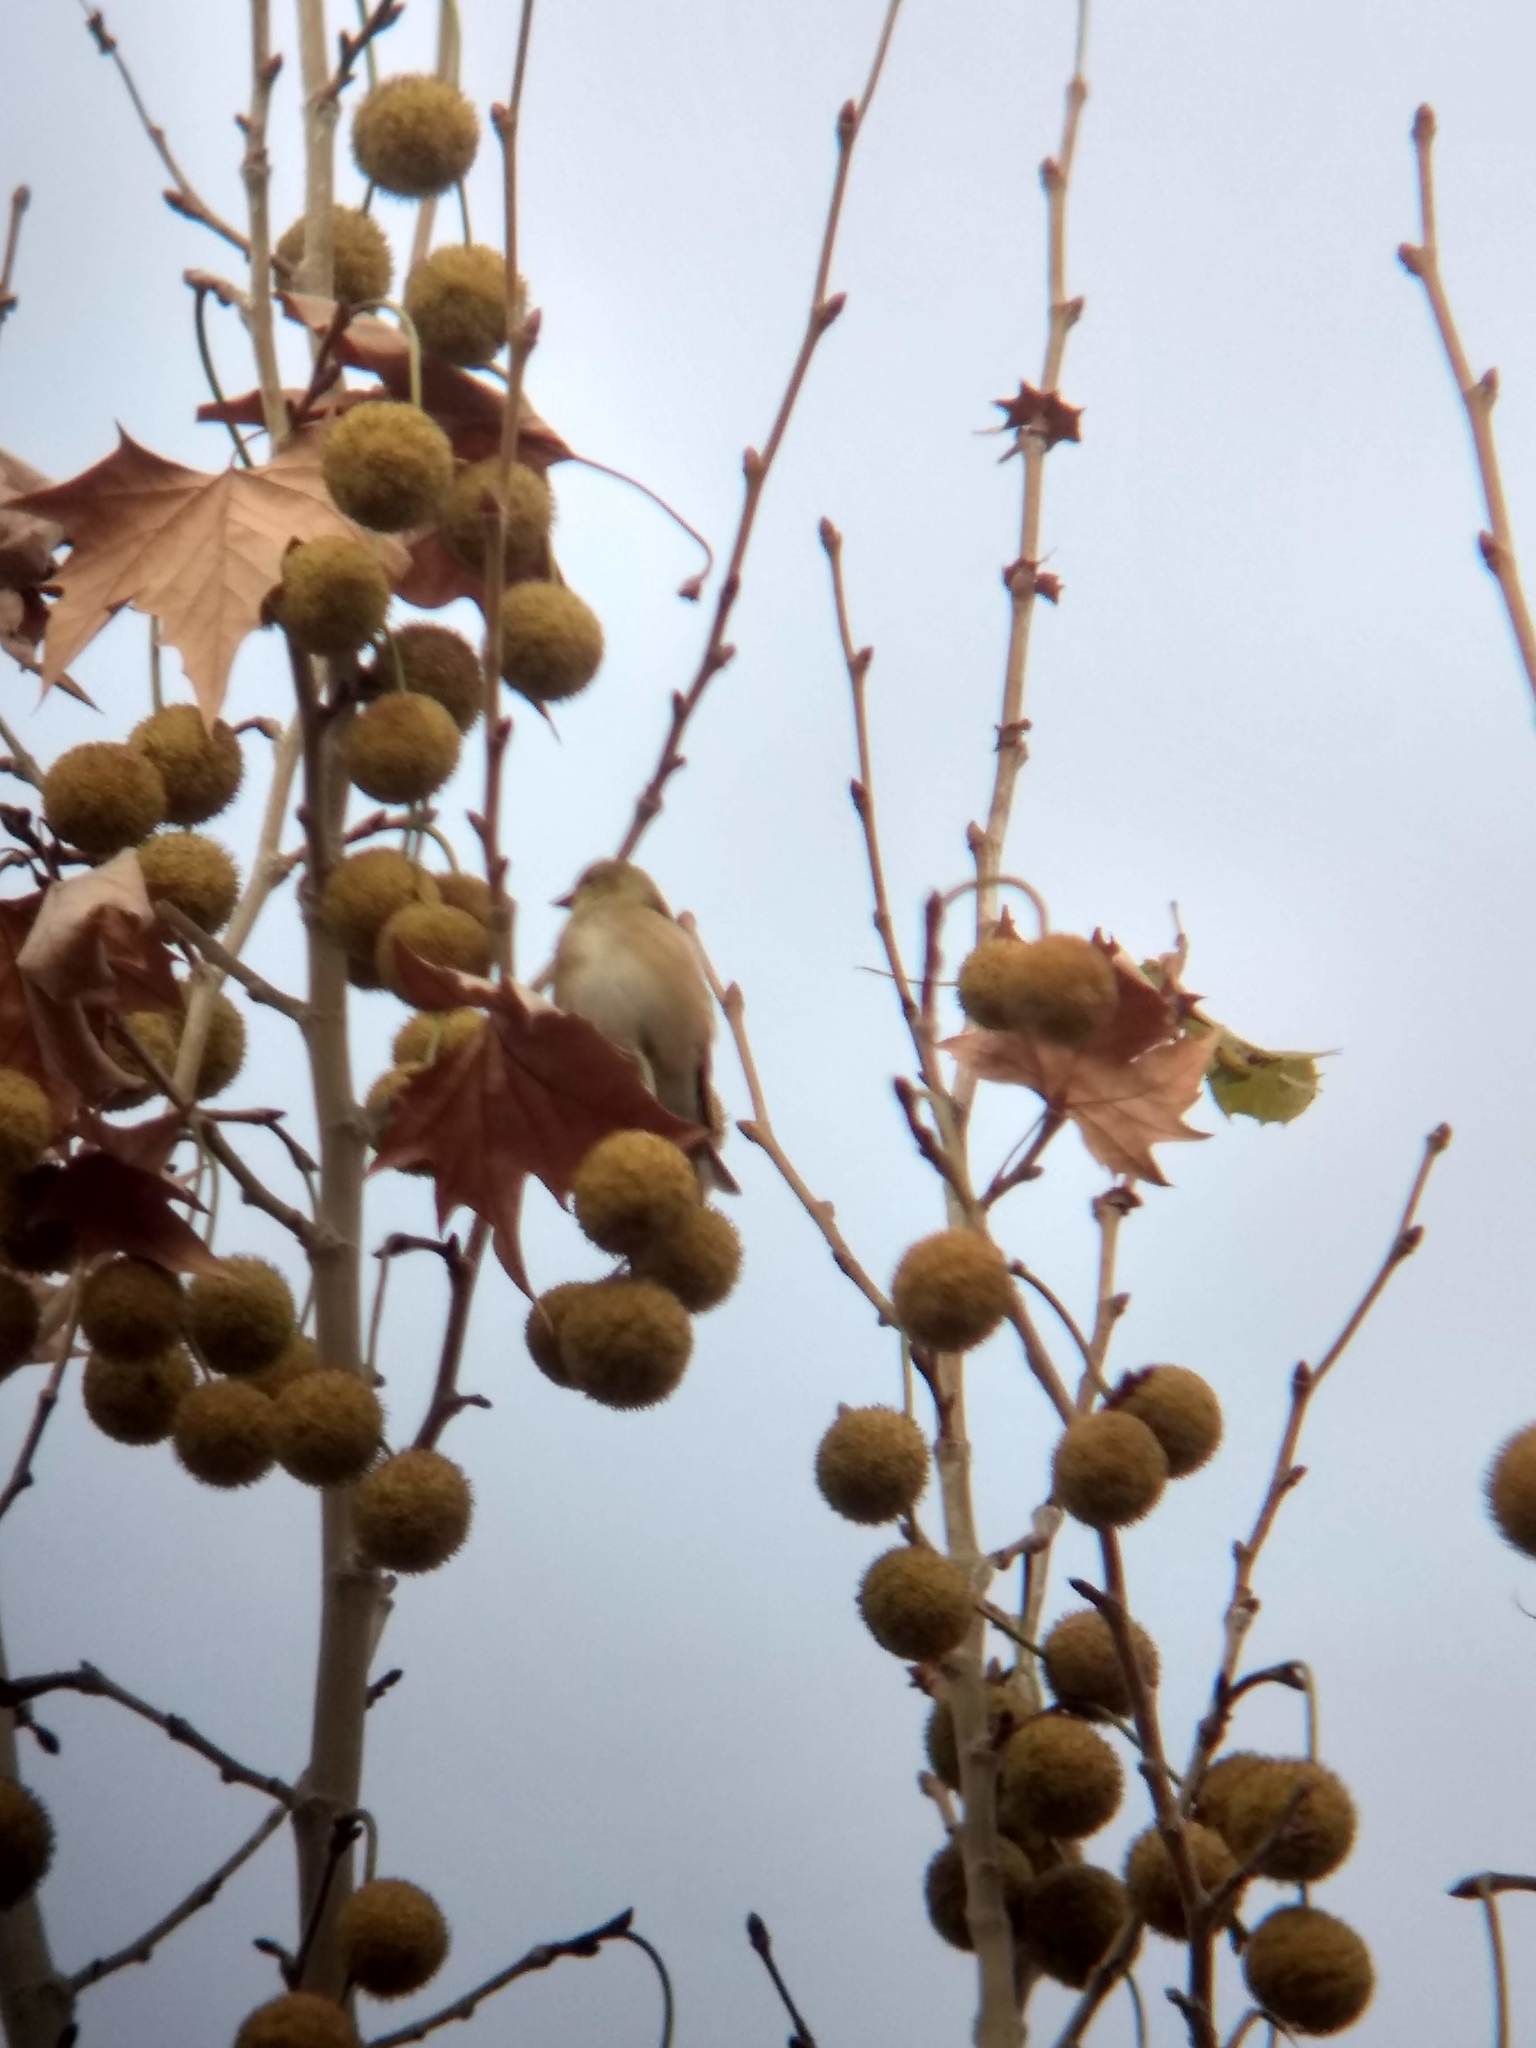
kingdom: Animalia
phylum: Chordata
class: Aves
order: Passeriformes
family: Fringillidae
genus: Spinus
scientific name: Spinus tristis
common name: American goldfinch
